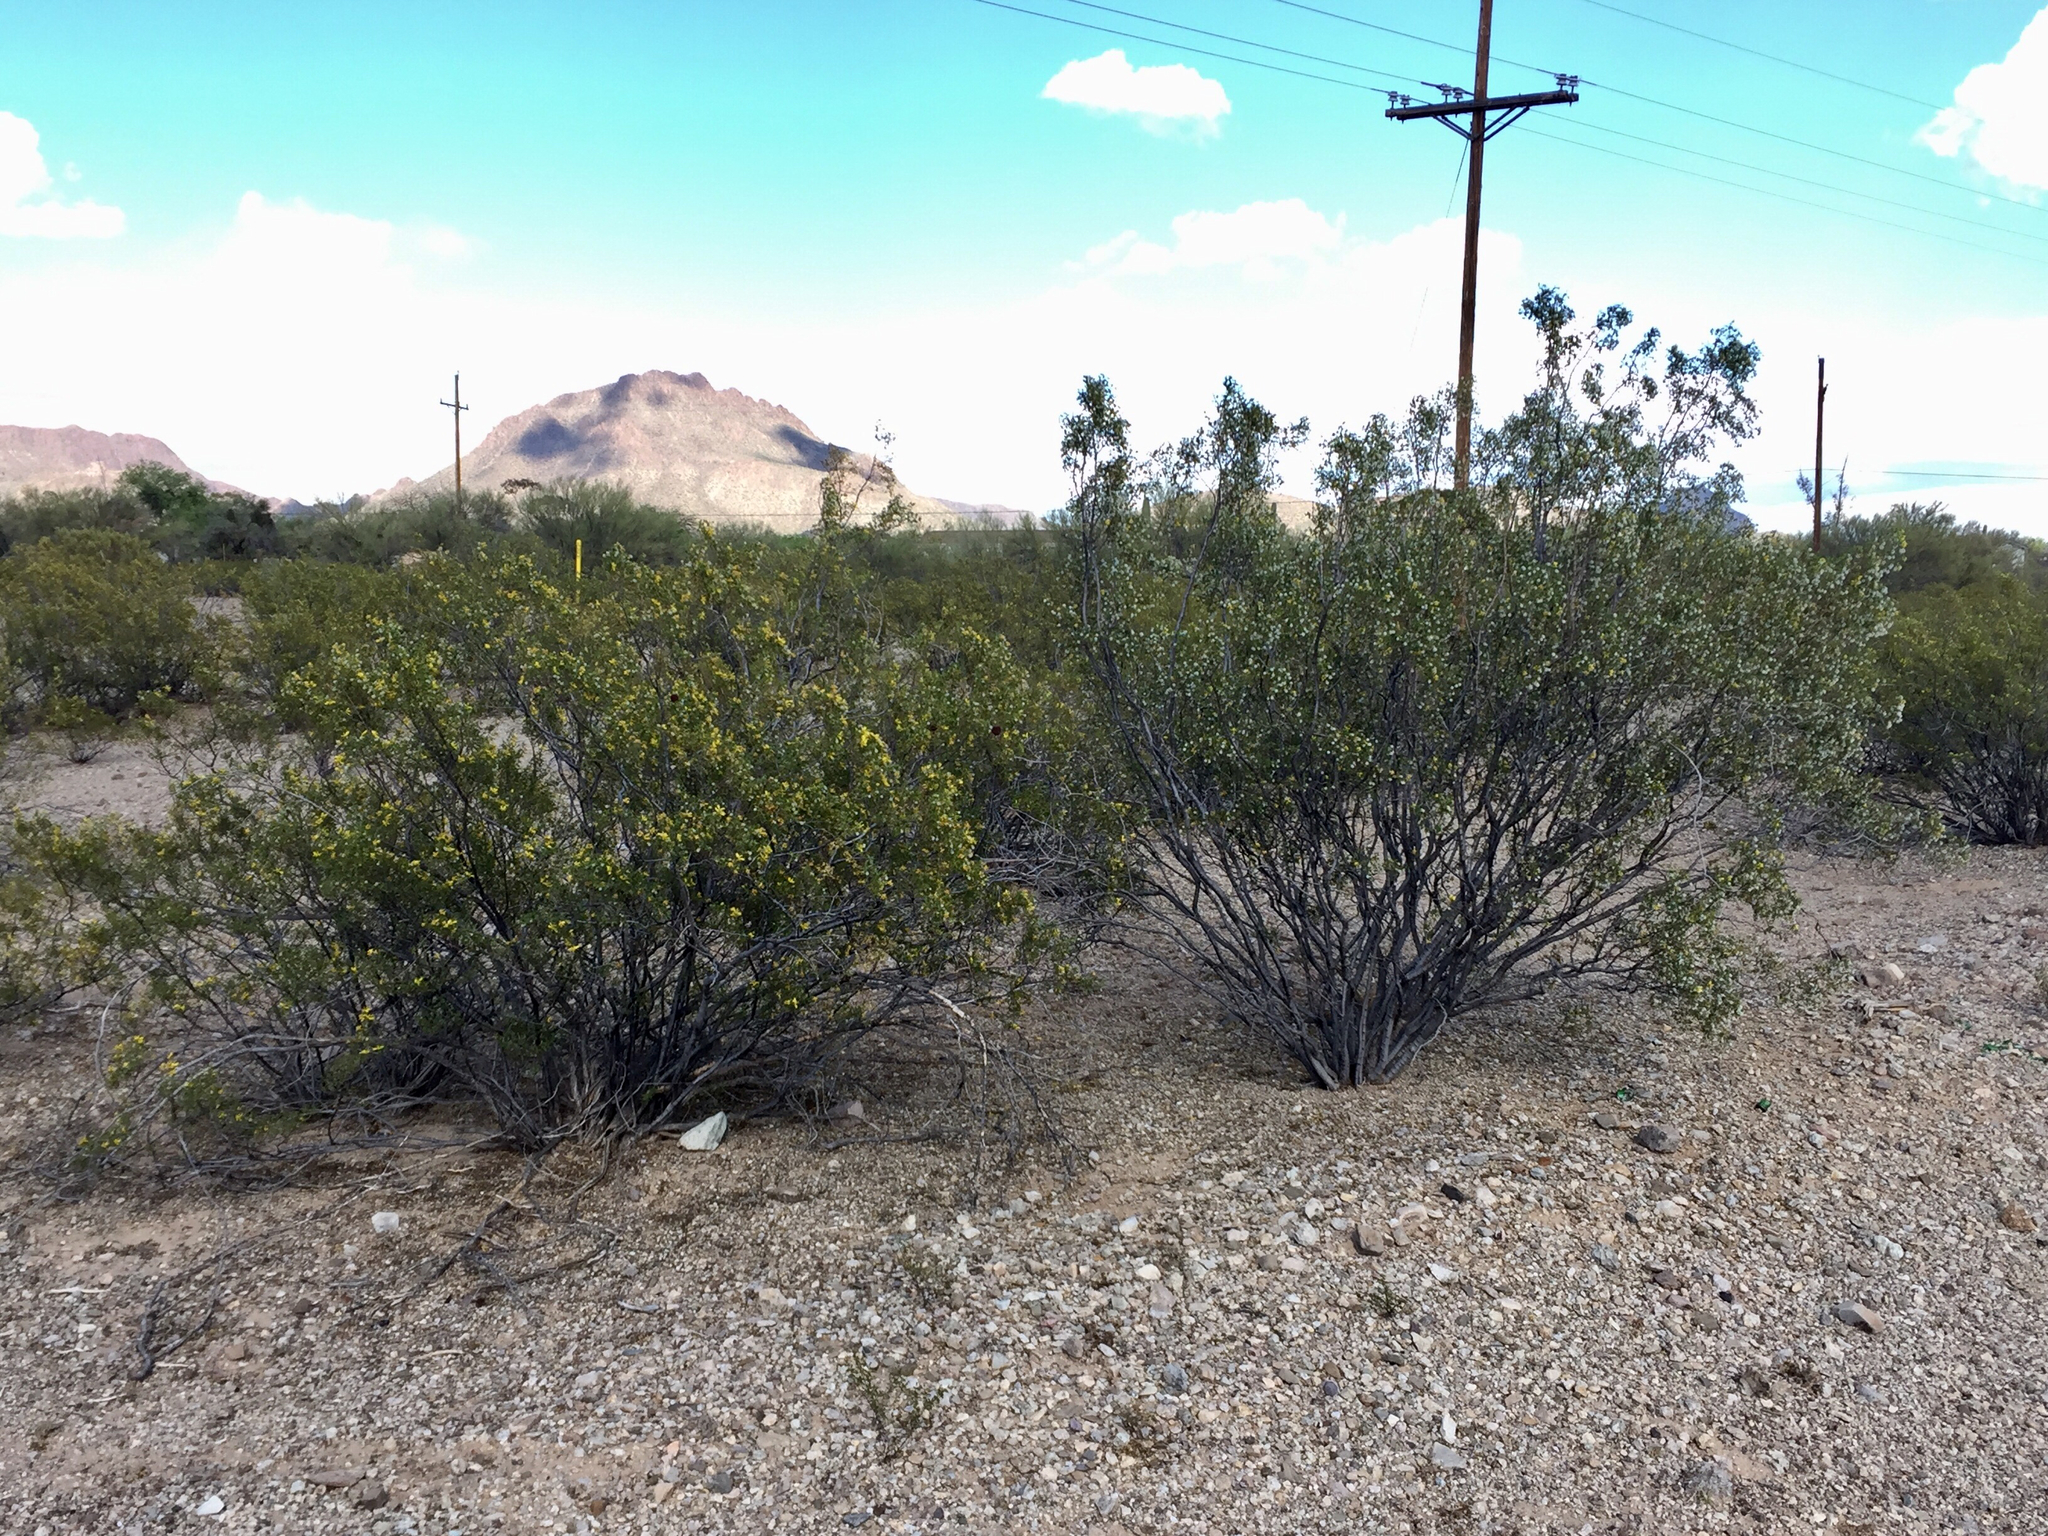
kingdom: Plantae
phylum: Tracheophyta
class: Magnoliopsida
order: Zygophyllales
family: Zygophyllaceae
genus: Larrea
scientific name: Larrea tridentata
